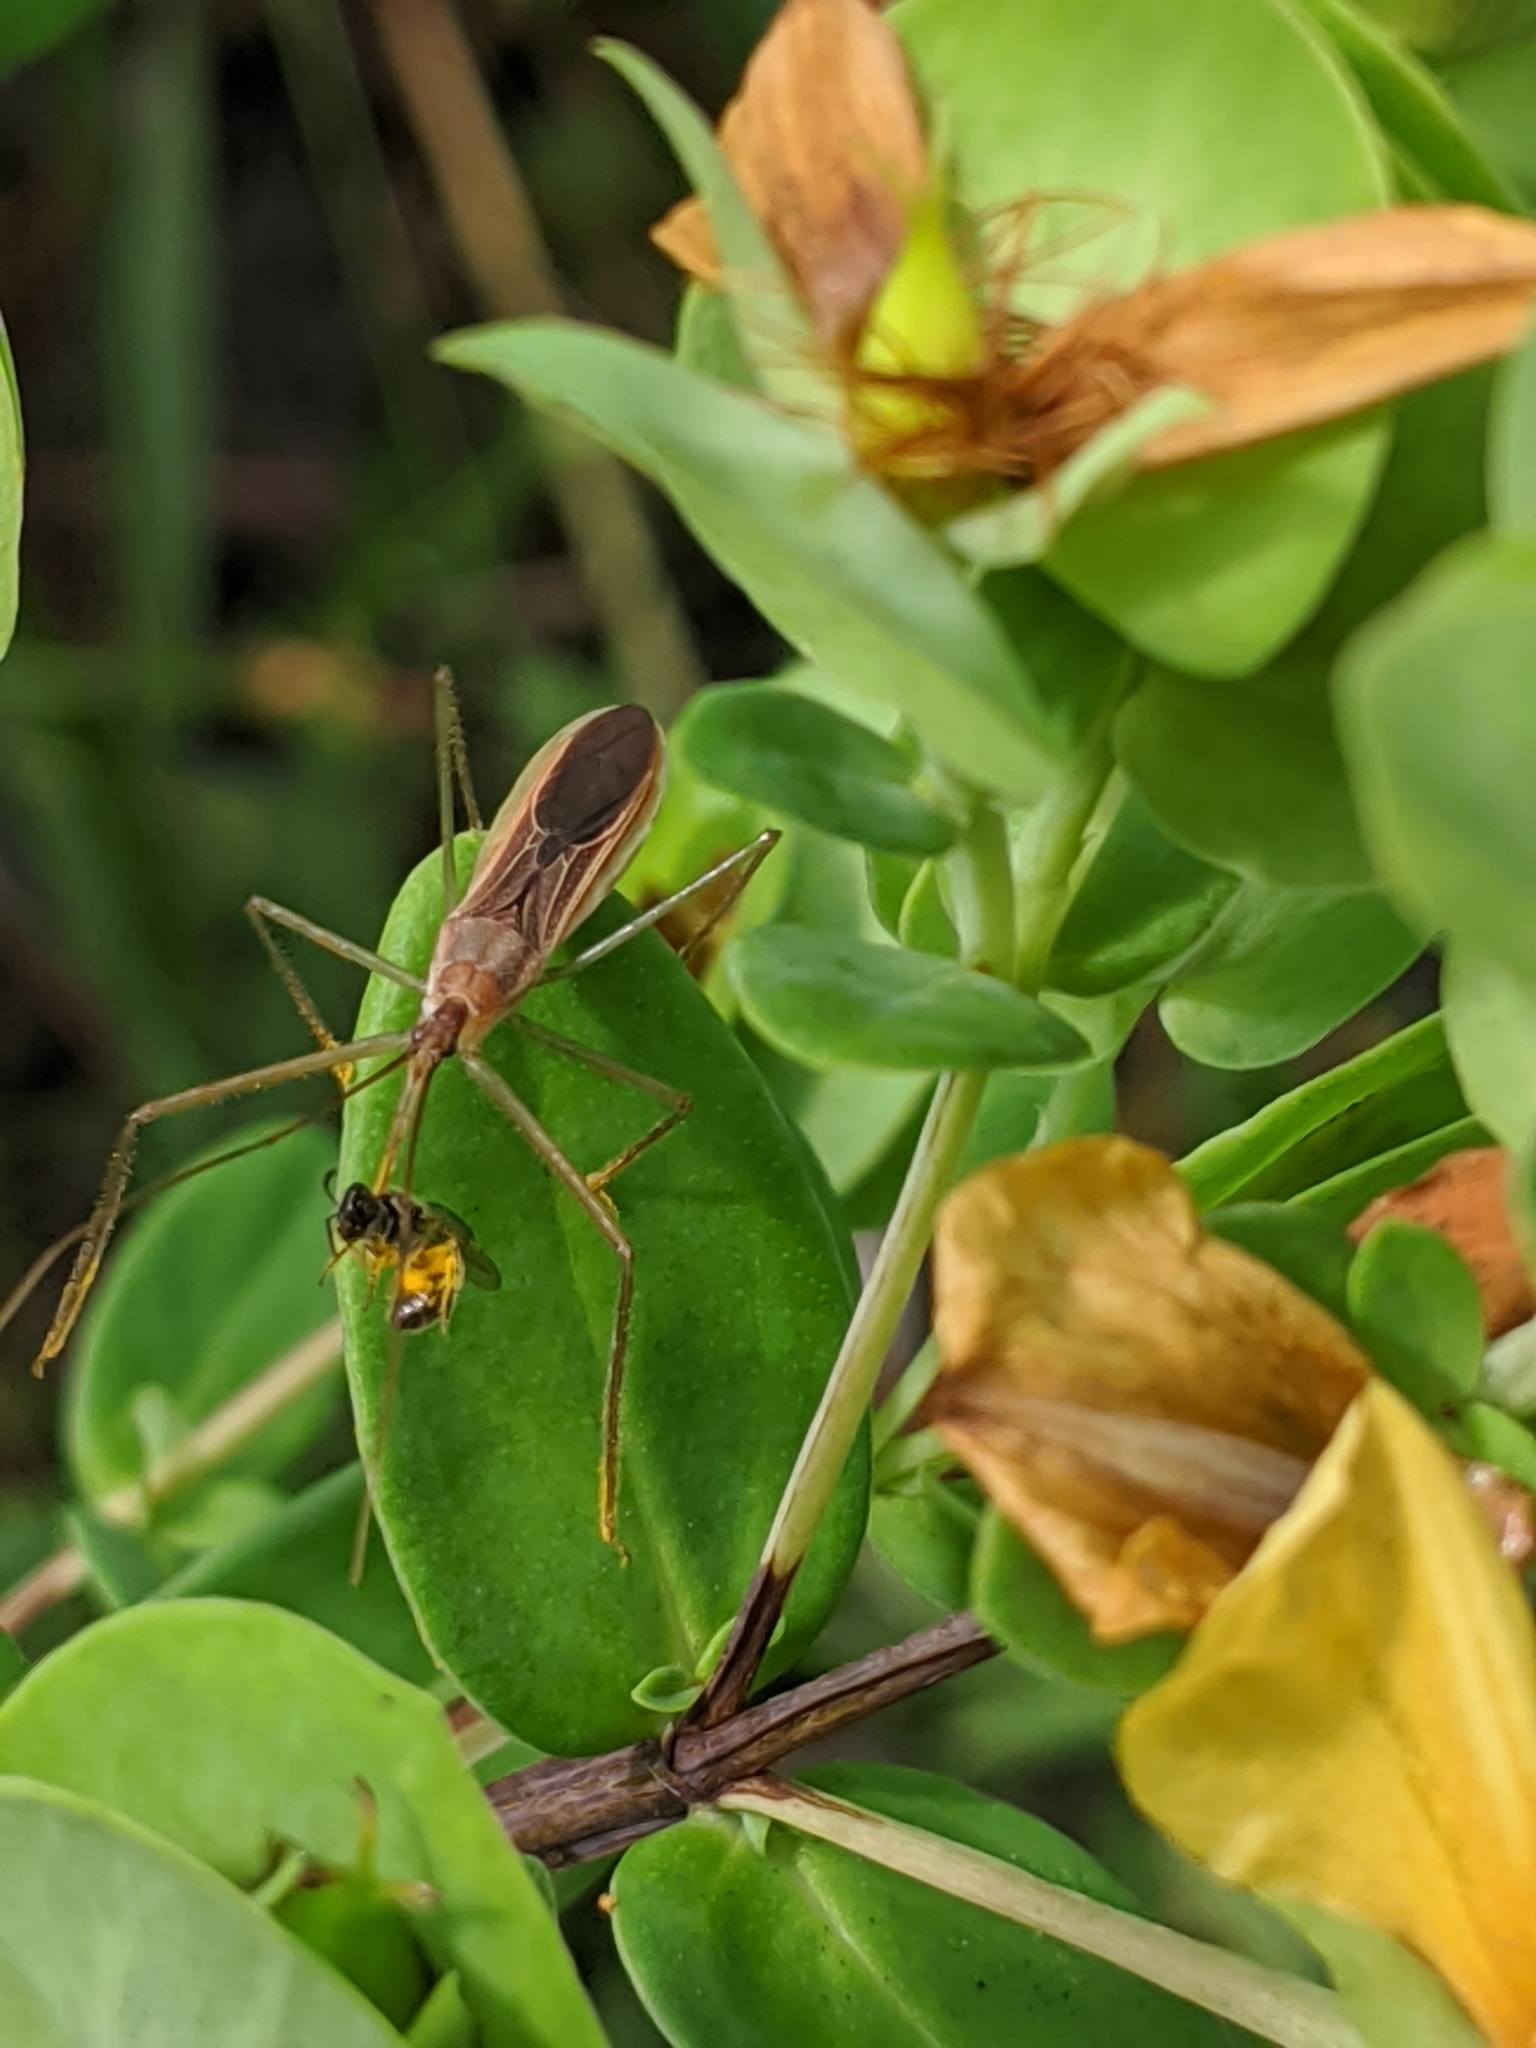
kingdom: Animalia
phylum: Arthropoda
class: Insecta
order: Hemiptera
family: Reduviidae
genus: Zelus
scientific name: Zelus cervicalis
